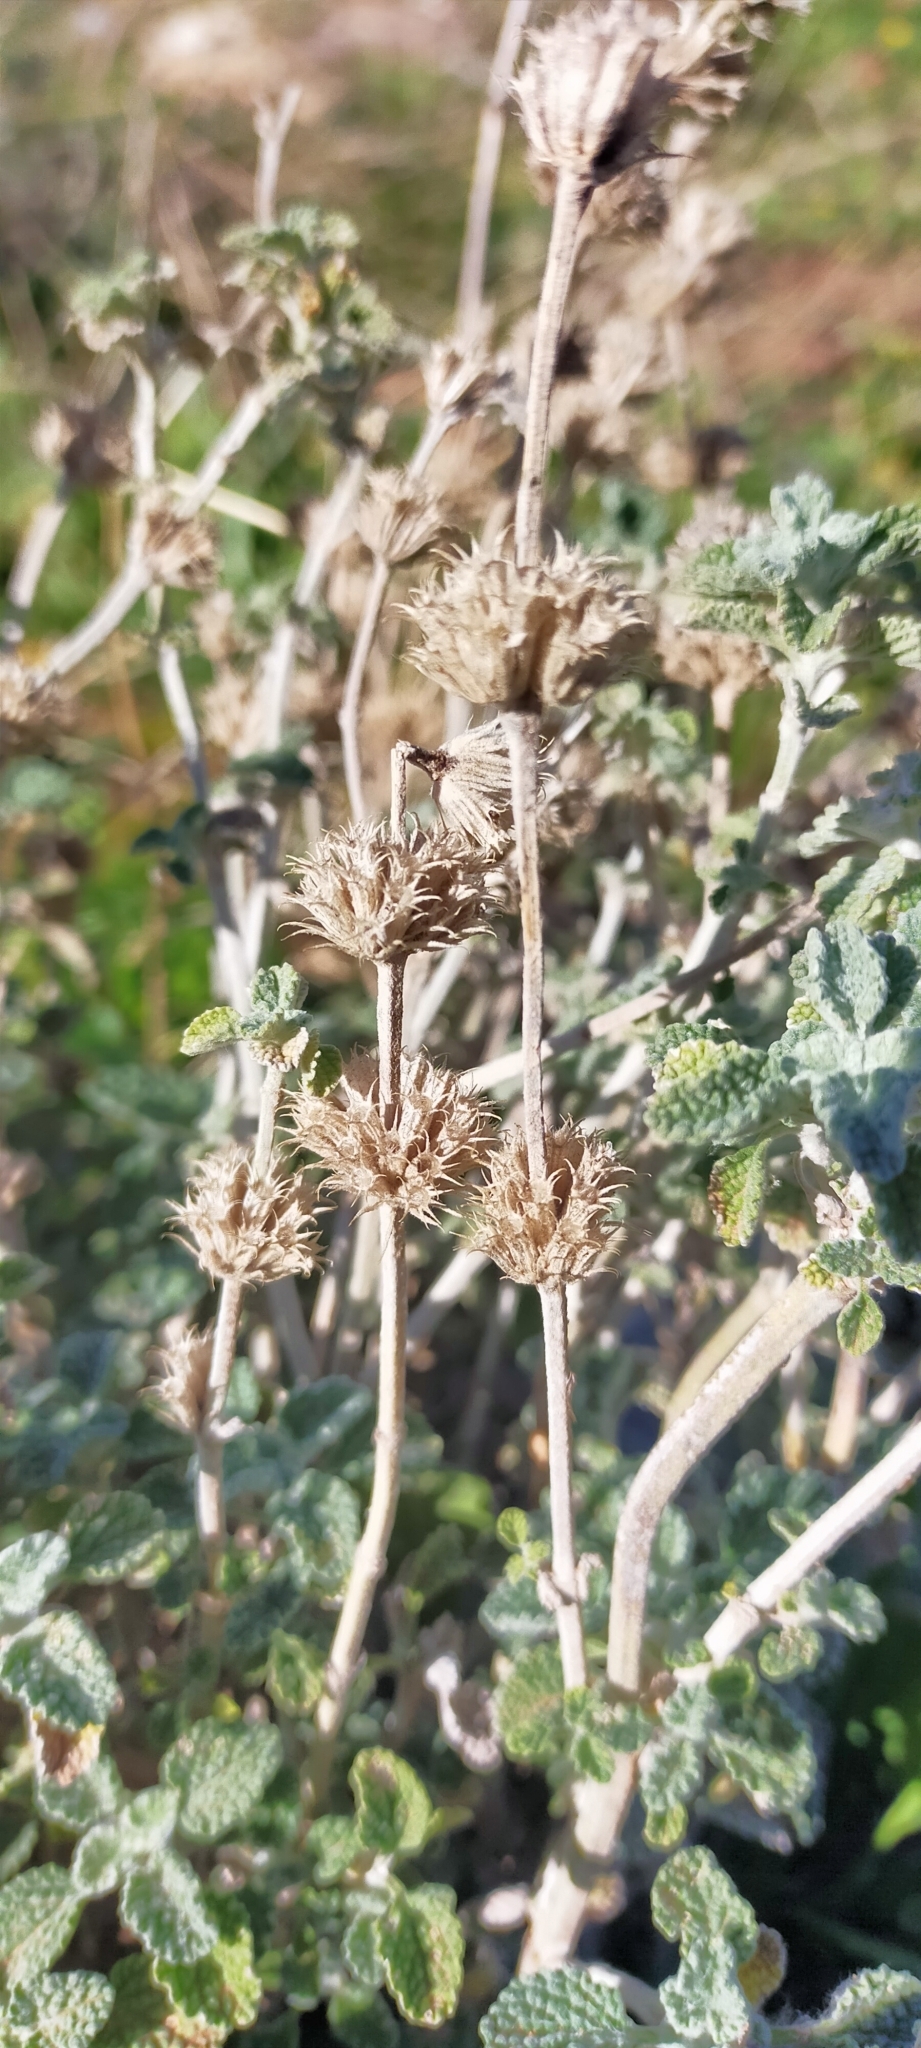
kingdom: Plantae
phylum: Tracheophyta
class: Magnoliopsida
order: Lamiales
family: Lamiaceae
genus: Marrubium
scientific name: Marrubium vulgare
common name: Horehound
